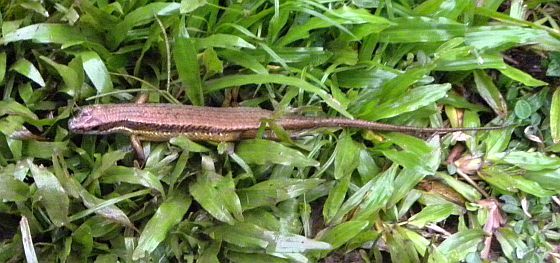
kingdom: Animalia
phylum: Chordata
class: Squamata
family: Scincidae
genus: Eutropis
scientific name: Eutropis rudis
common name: Rough mabuya
